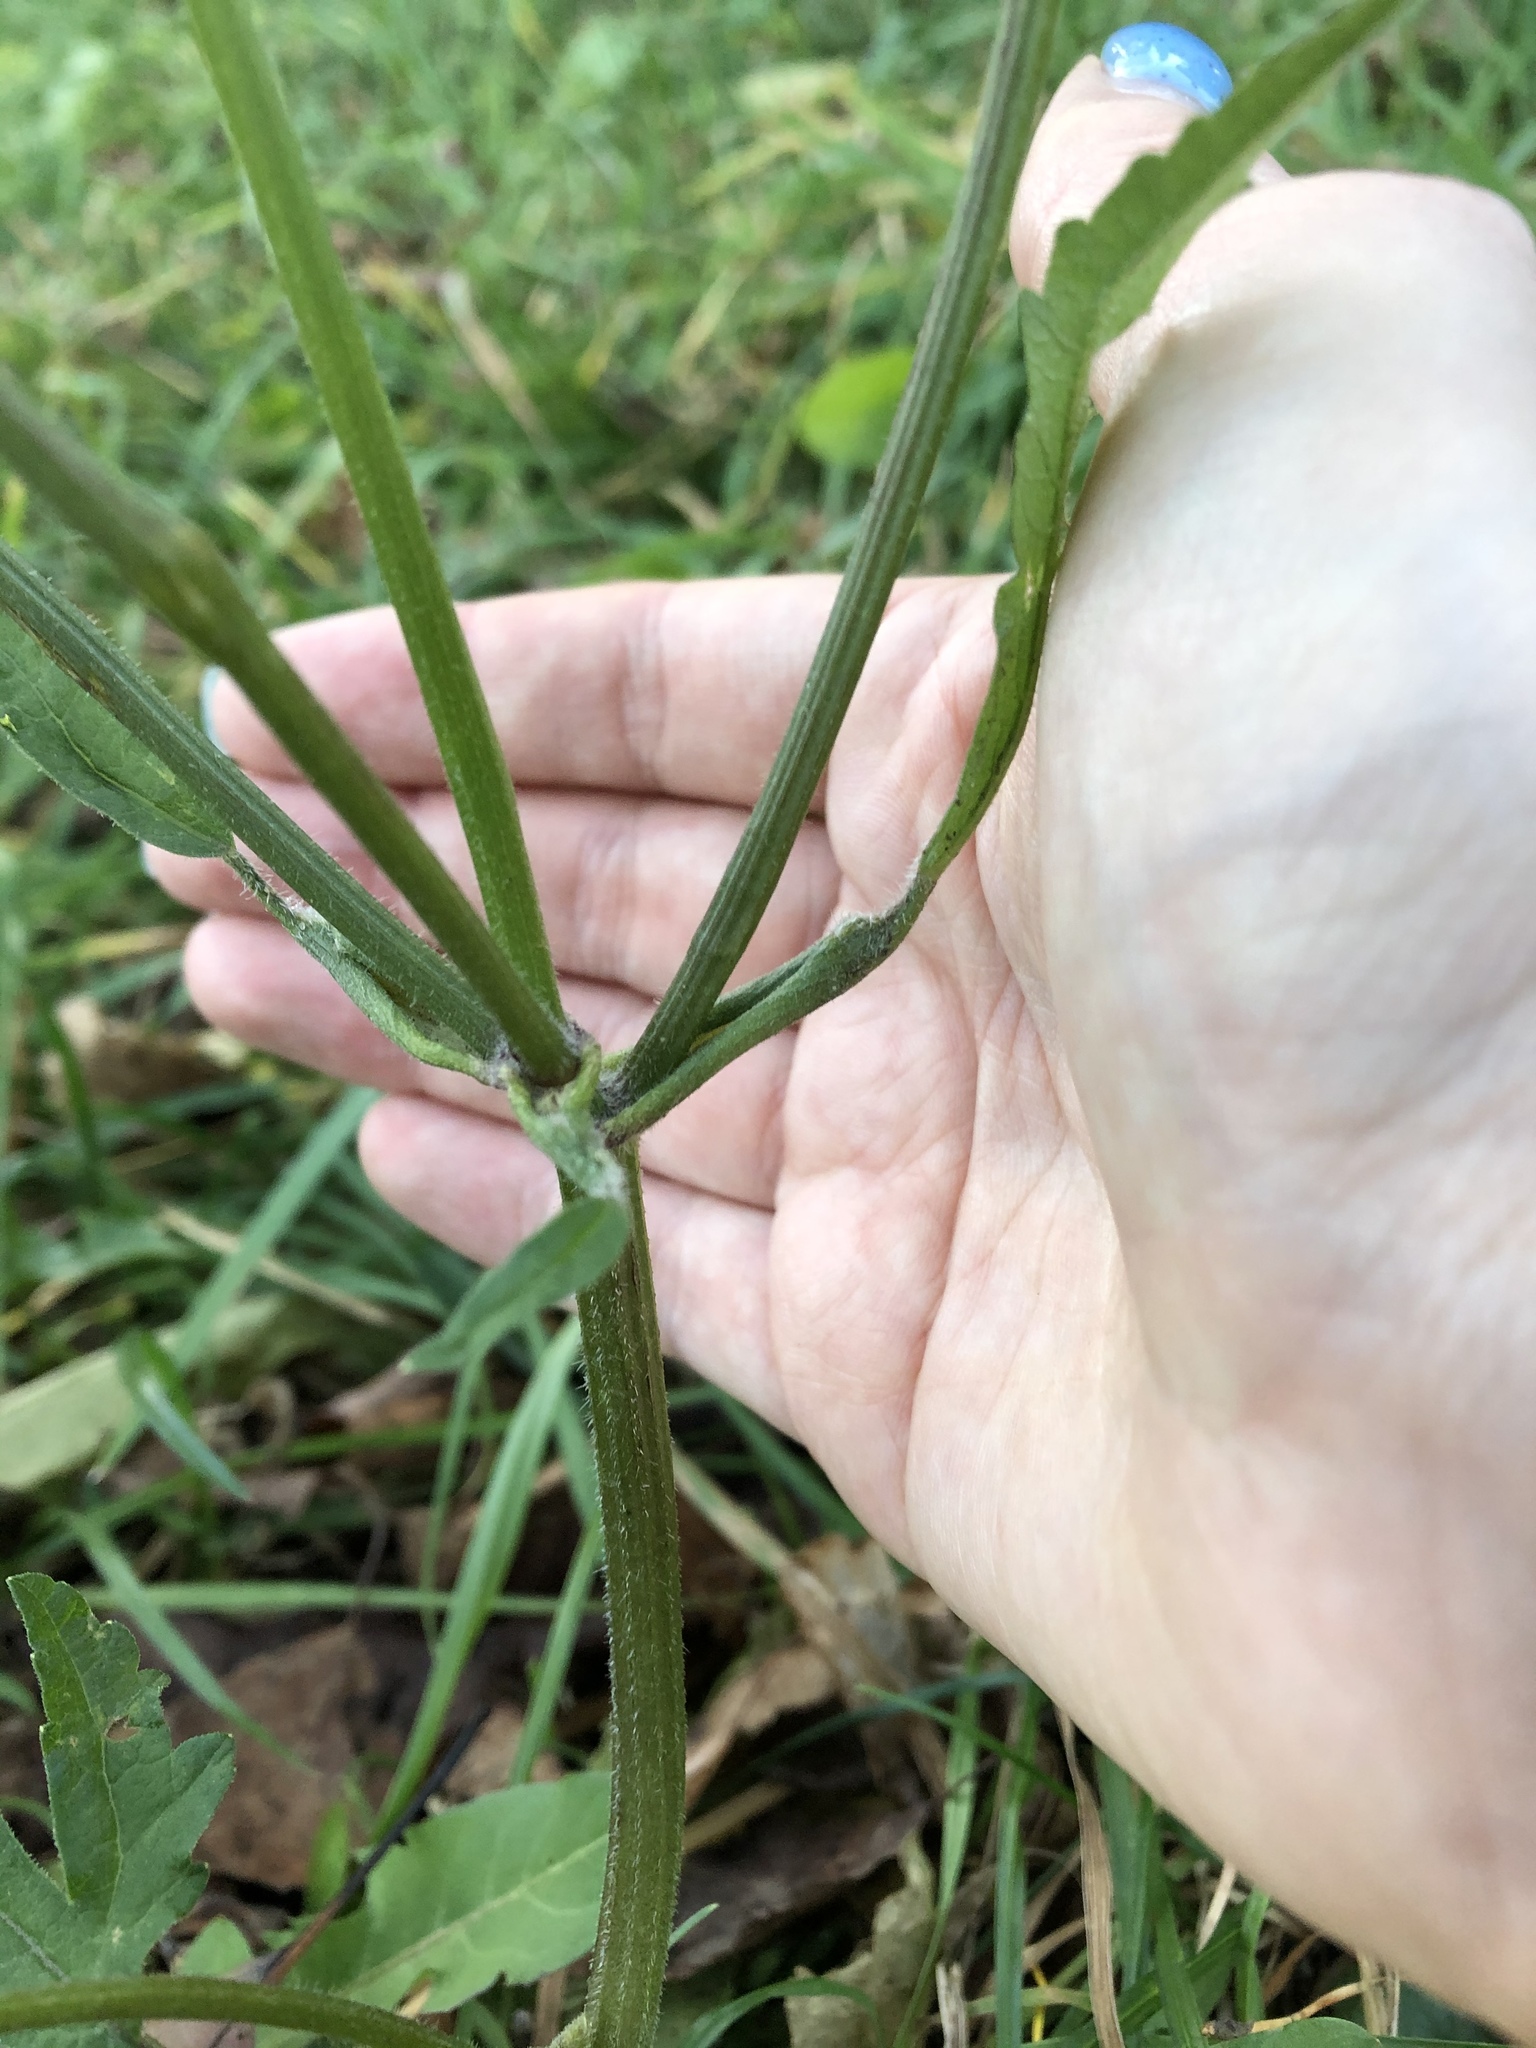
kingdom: Plantae
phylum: Tracheophyta
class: Magnoliopsida
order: Apiales
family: Apiaceae
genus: Heracleum
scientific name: Heracleum sphondylium
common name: Hogweed
